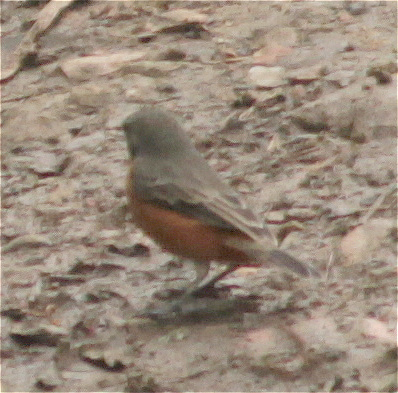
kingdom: Animalia
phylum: Chordata
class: Aves
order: Passeriformes
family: Thraupidae
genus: Sporophila
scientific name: Sporophila minuta
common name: Ruddy-breasted seedeater
